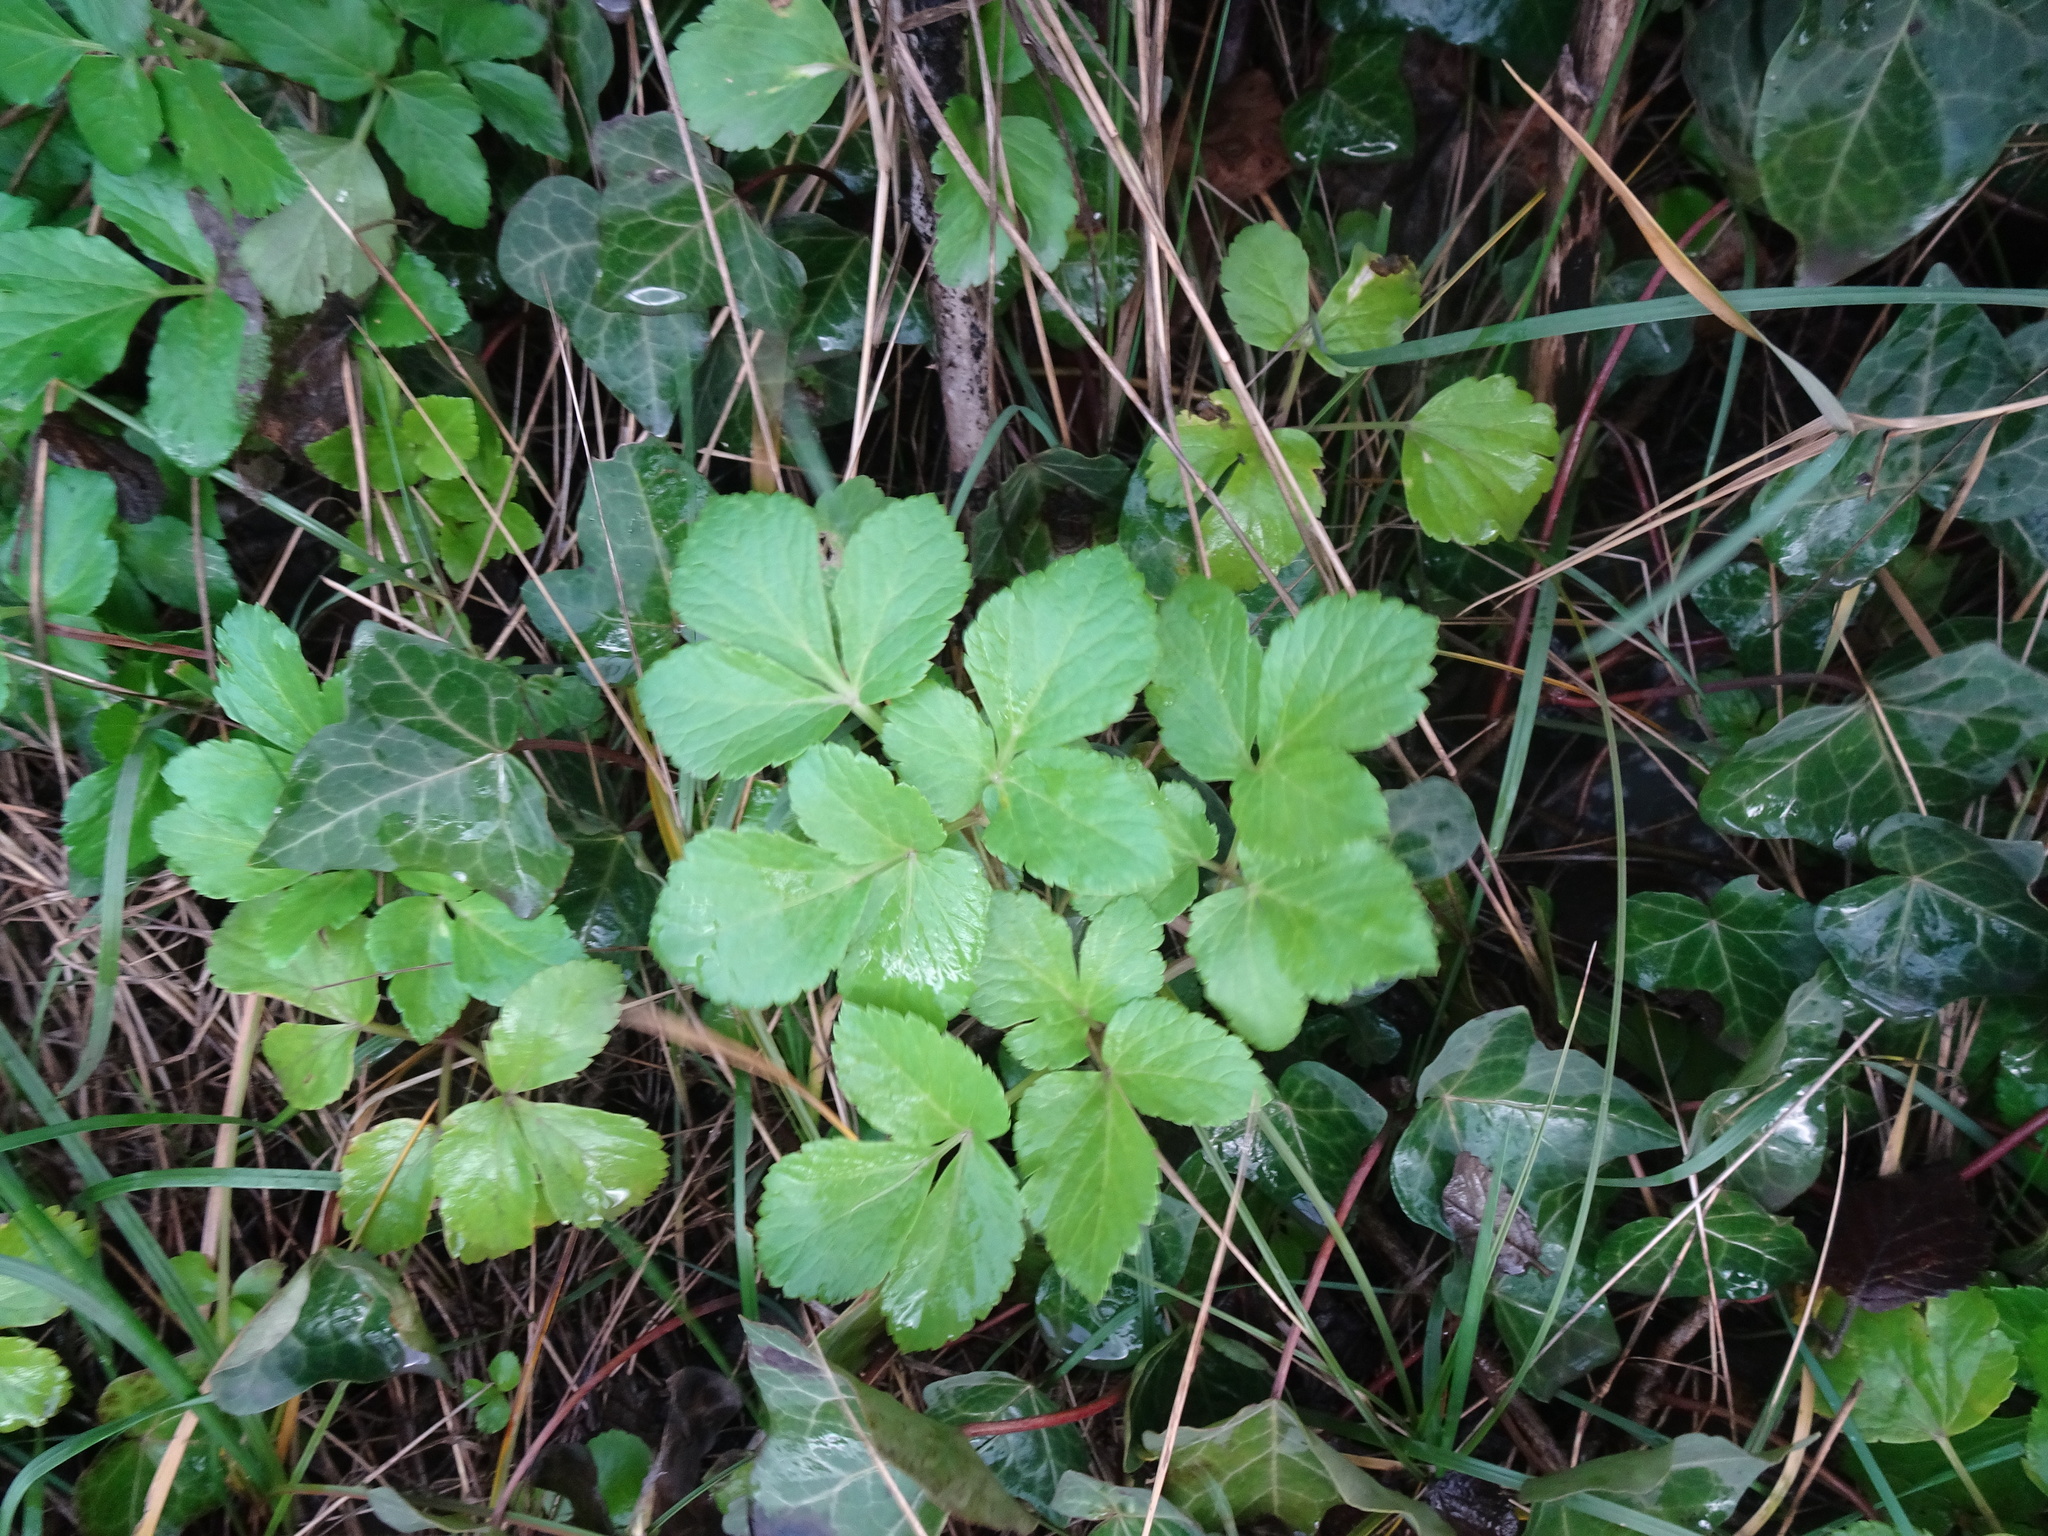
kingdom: Plantae
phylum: Tracheophyta
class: Magnoliopsida
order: Apiales
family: Apiaceae
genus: Smyrnium
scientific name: Smyrnium olusatrum
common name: Alexanders
